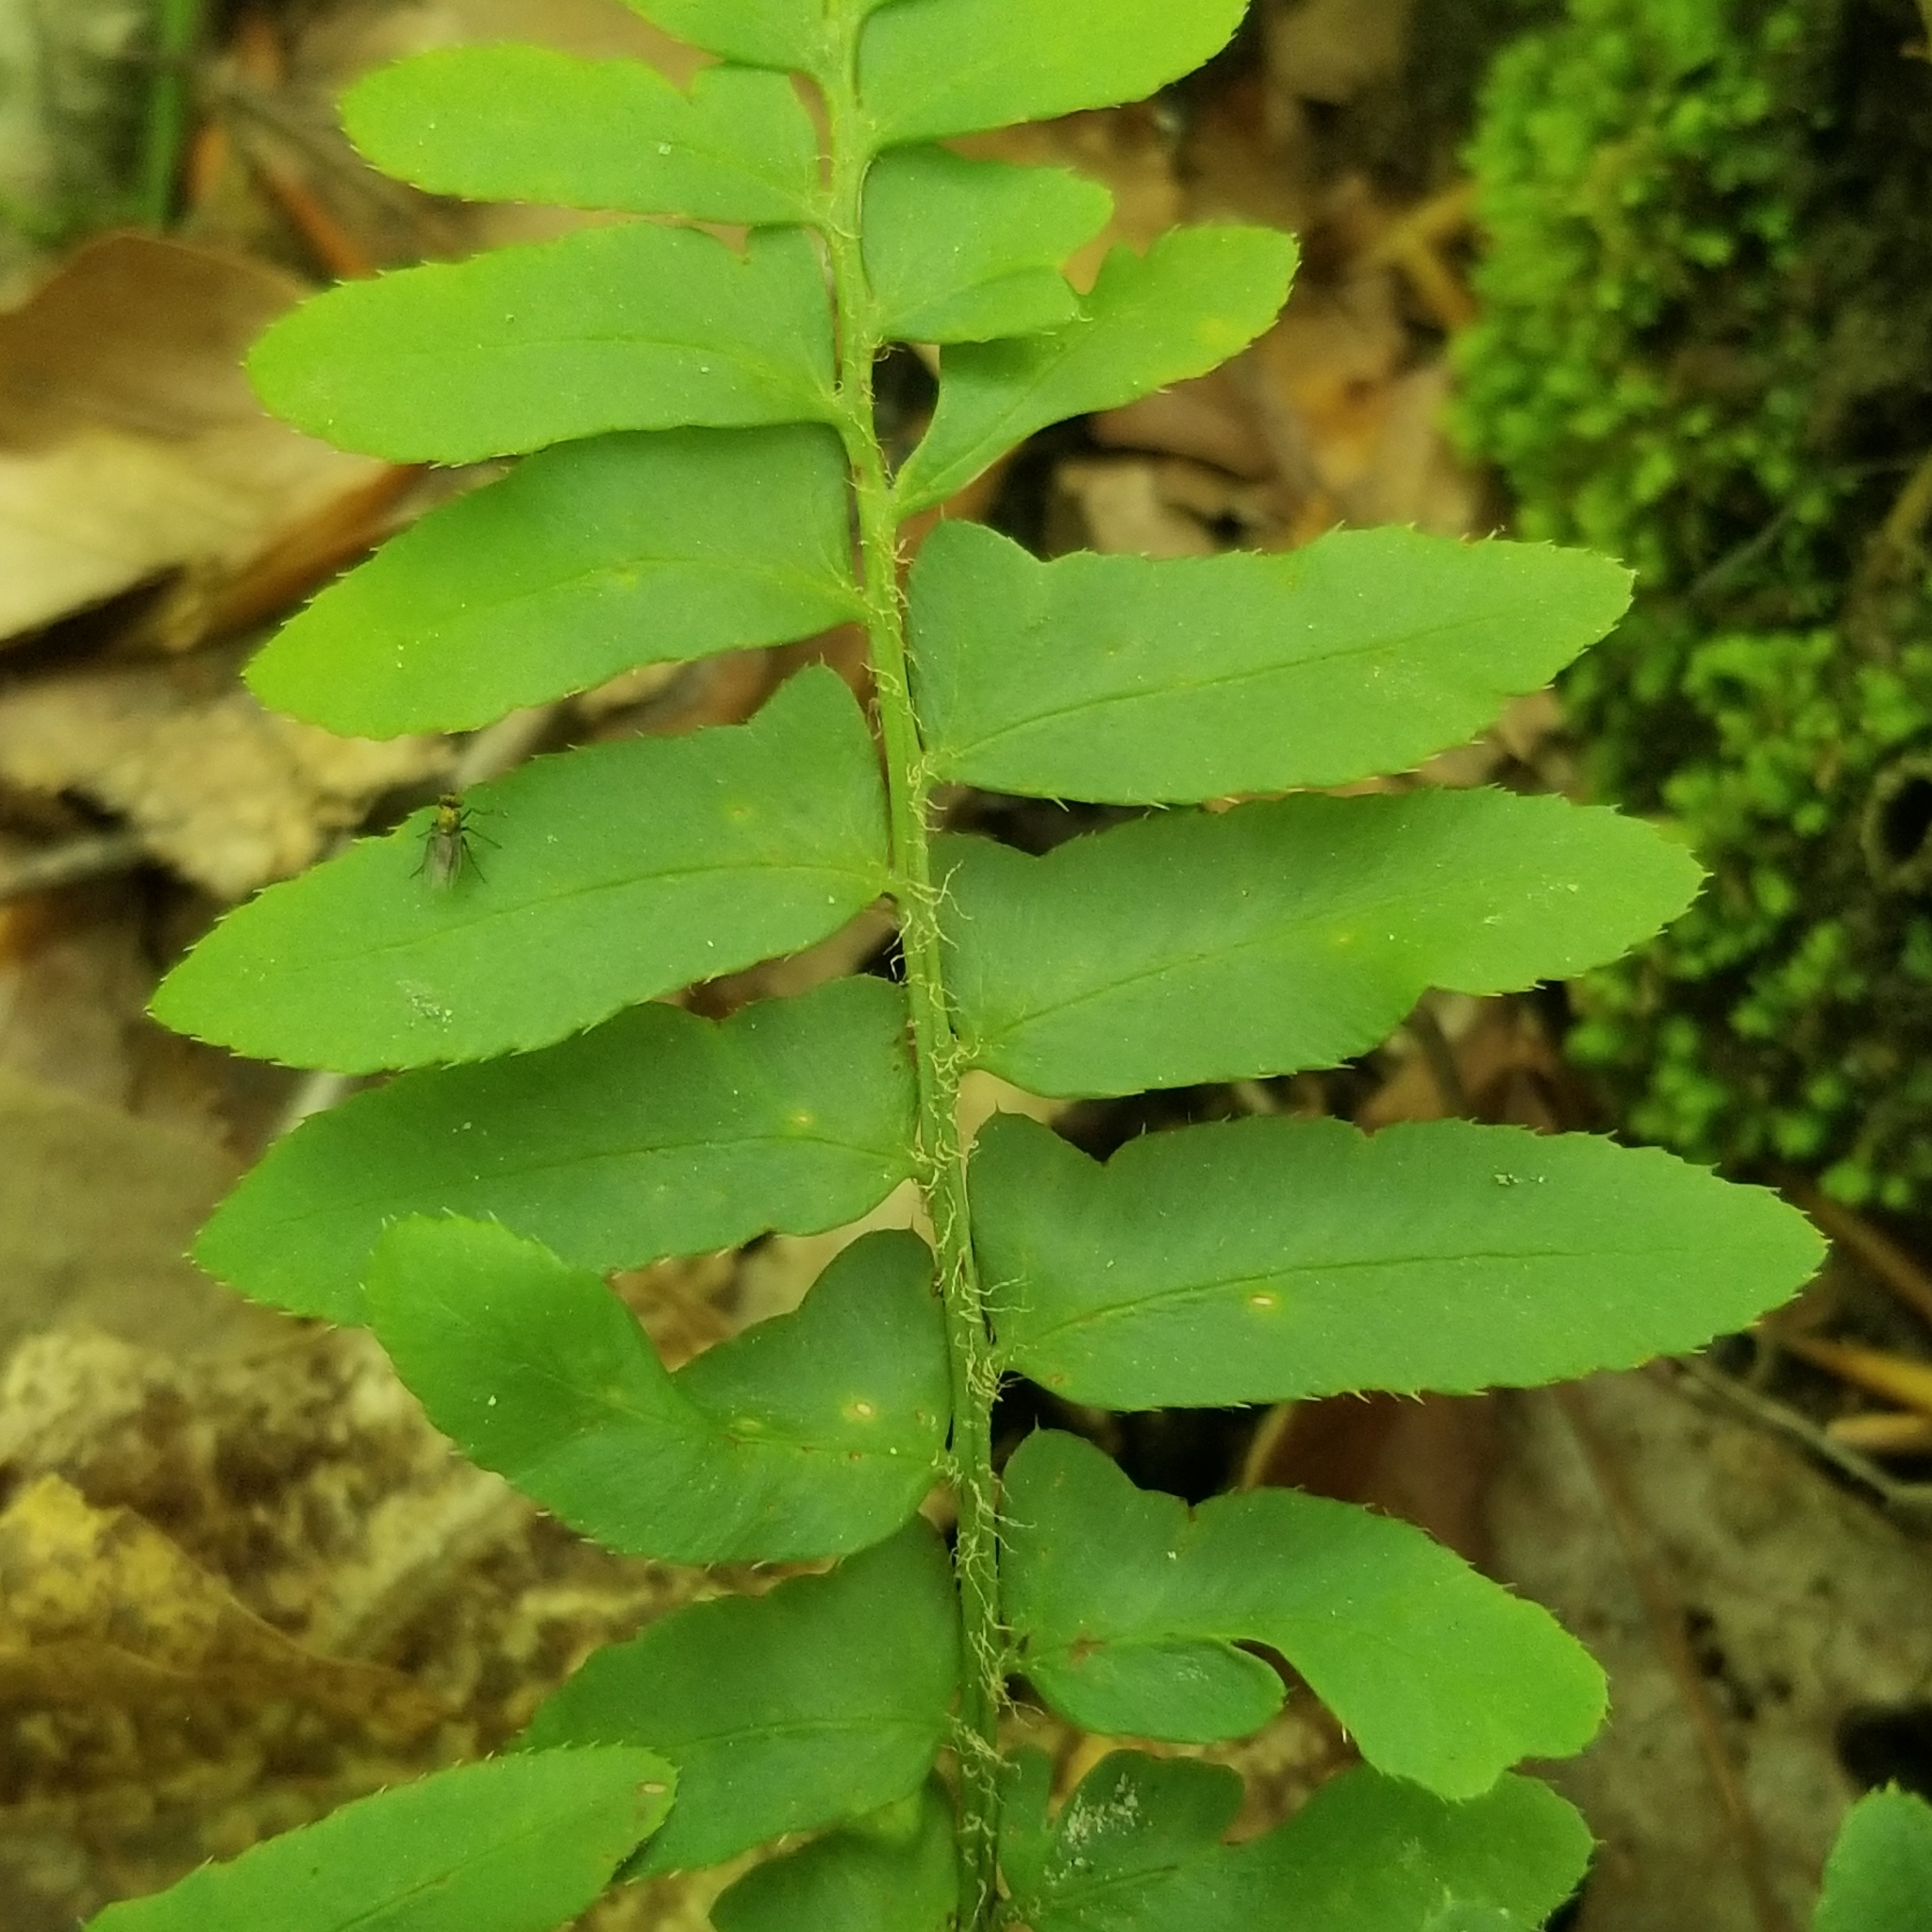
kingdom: Plantae
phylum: Tracheophyta
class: Polypodiopsida
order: Polypodiales
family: Dryopteridaceae
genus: Polystichum
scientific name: Polystichum acrostichoides
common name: Christmas fern
